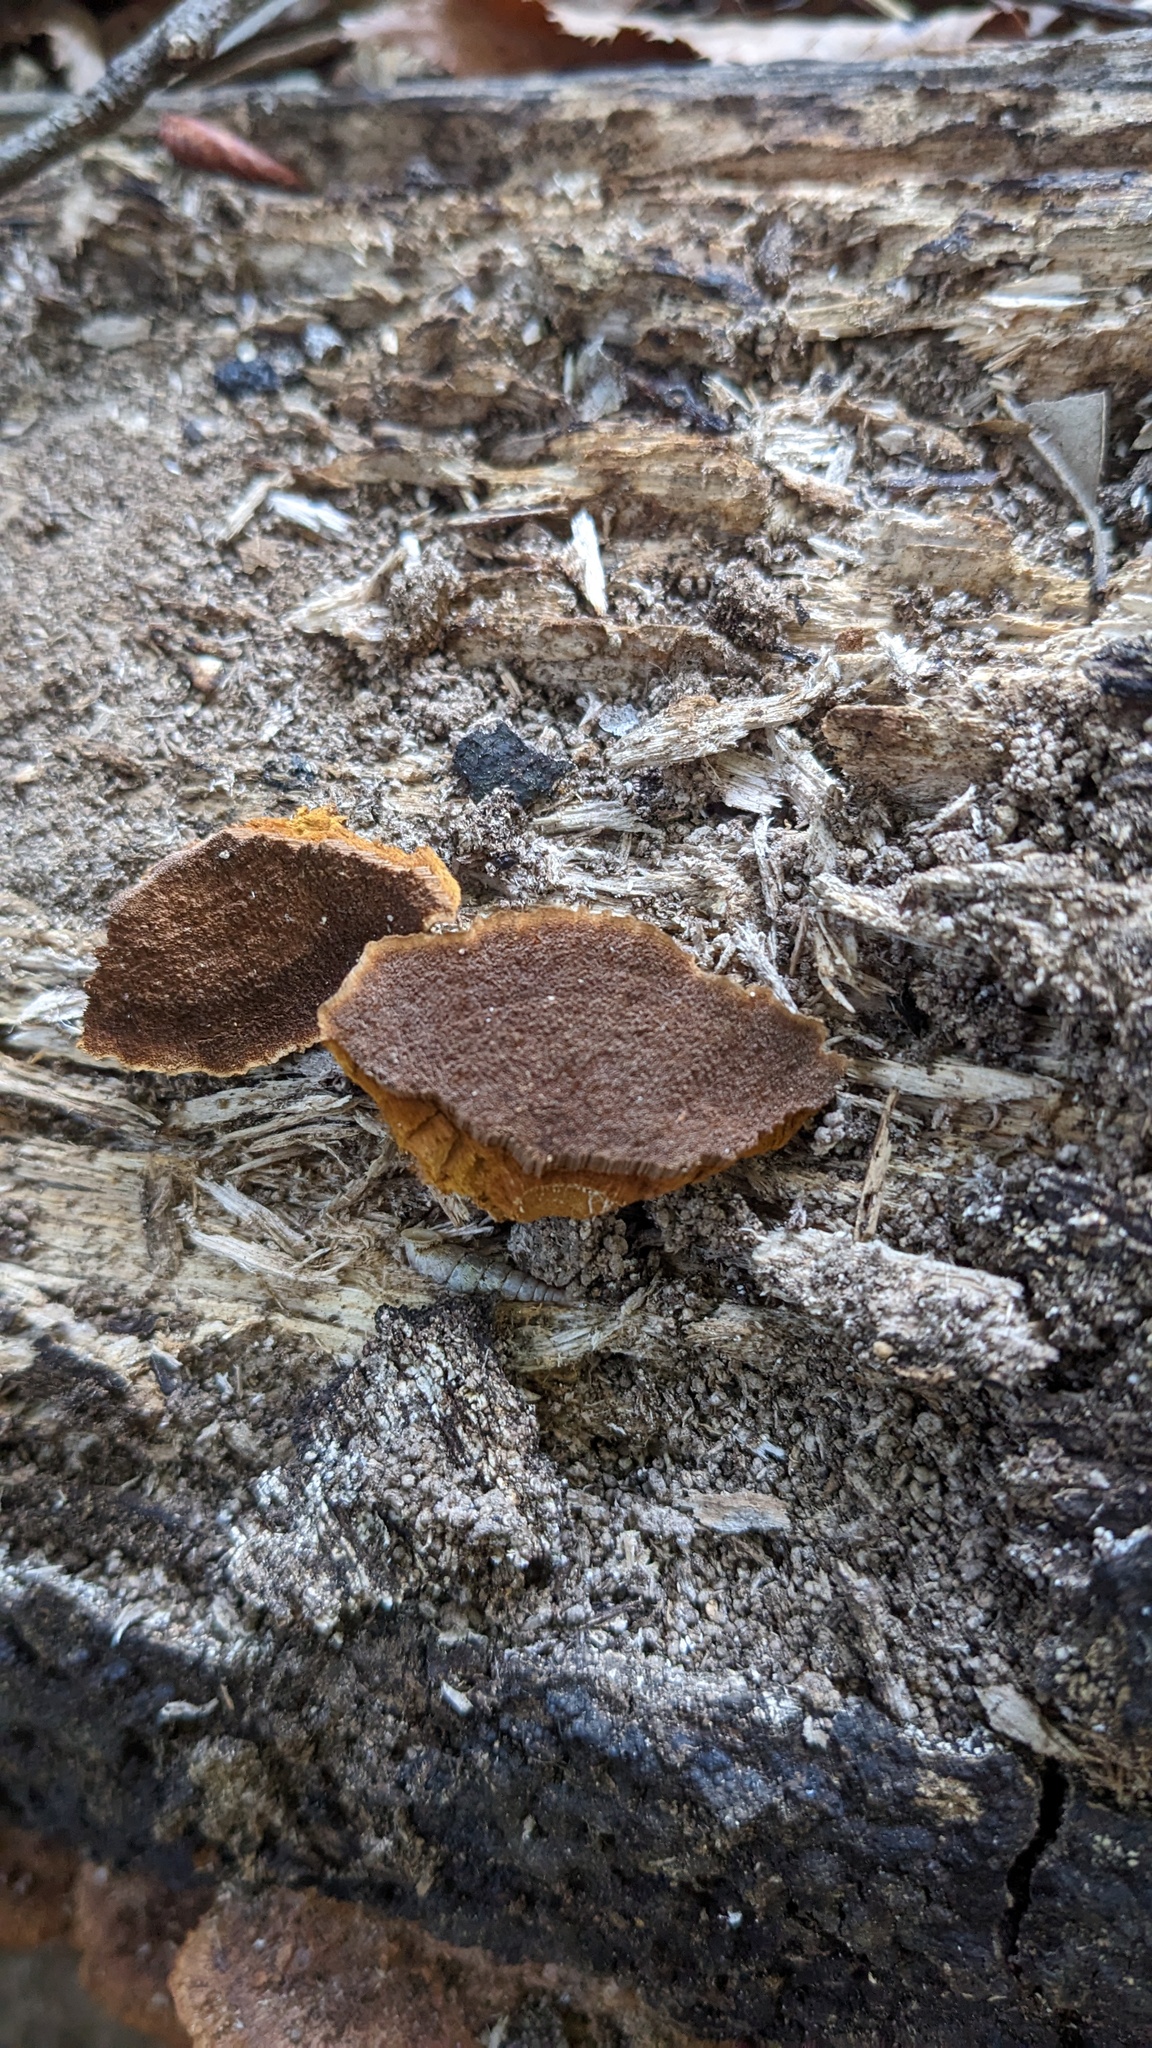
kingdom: Fungi
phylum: Basidiomycota
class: Agaricomycetes
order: Hymenochaetales
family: Hymenochaetaceae
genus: Phellinus
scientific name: Phellinus gilvus
